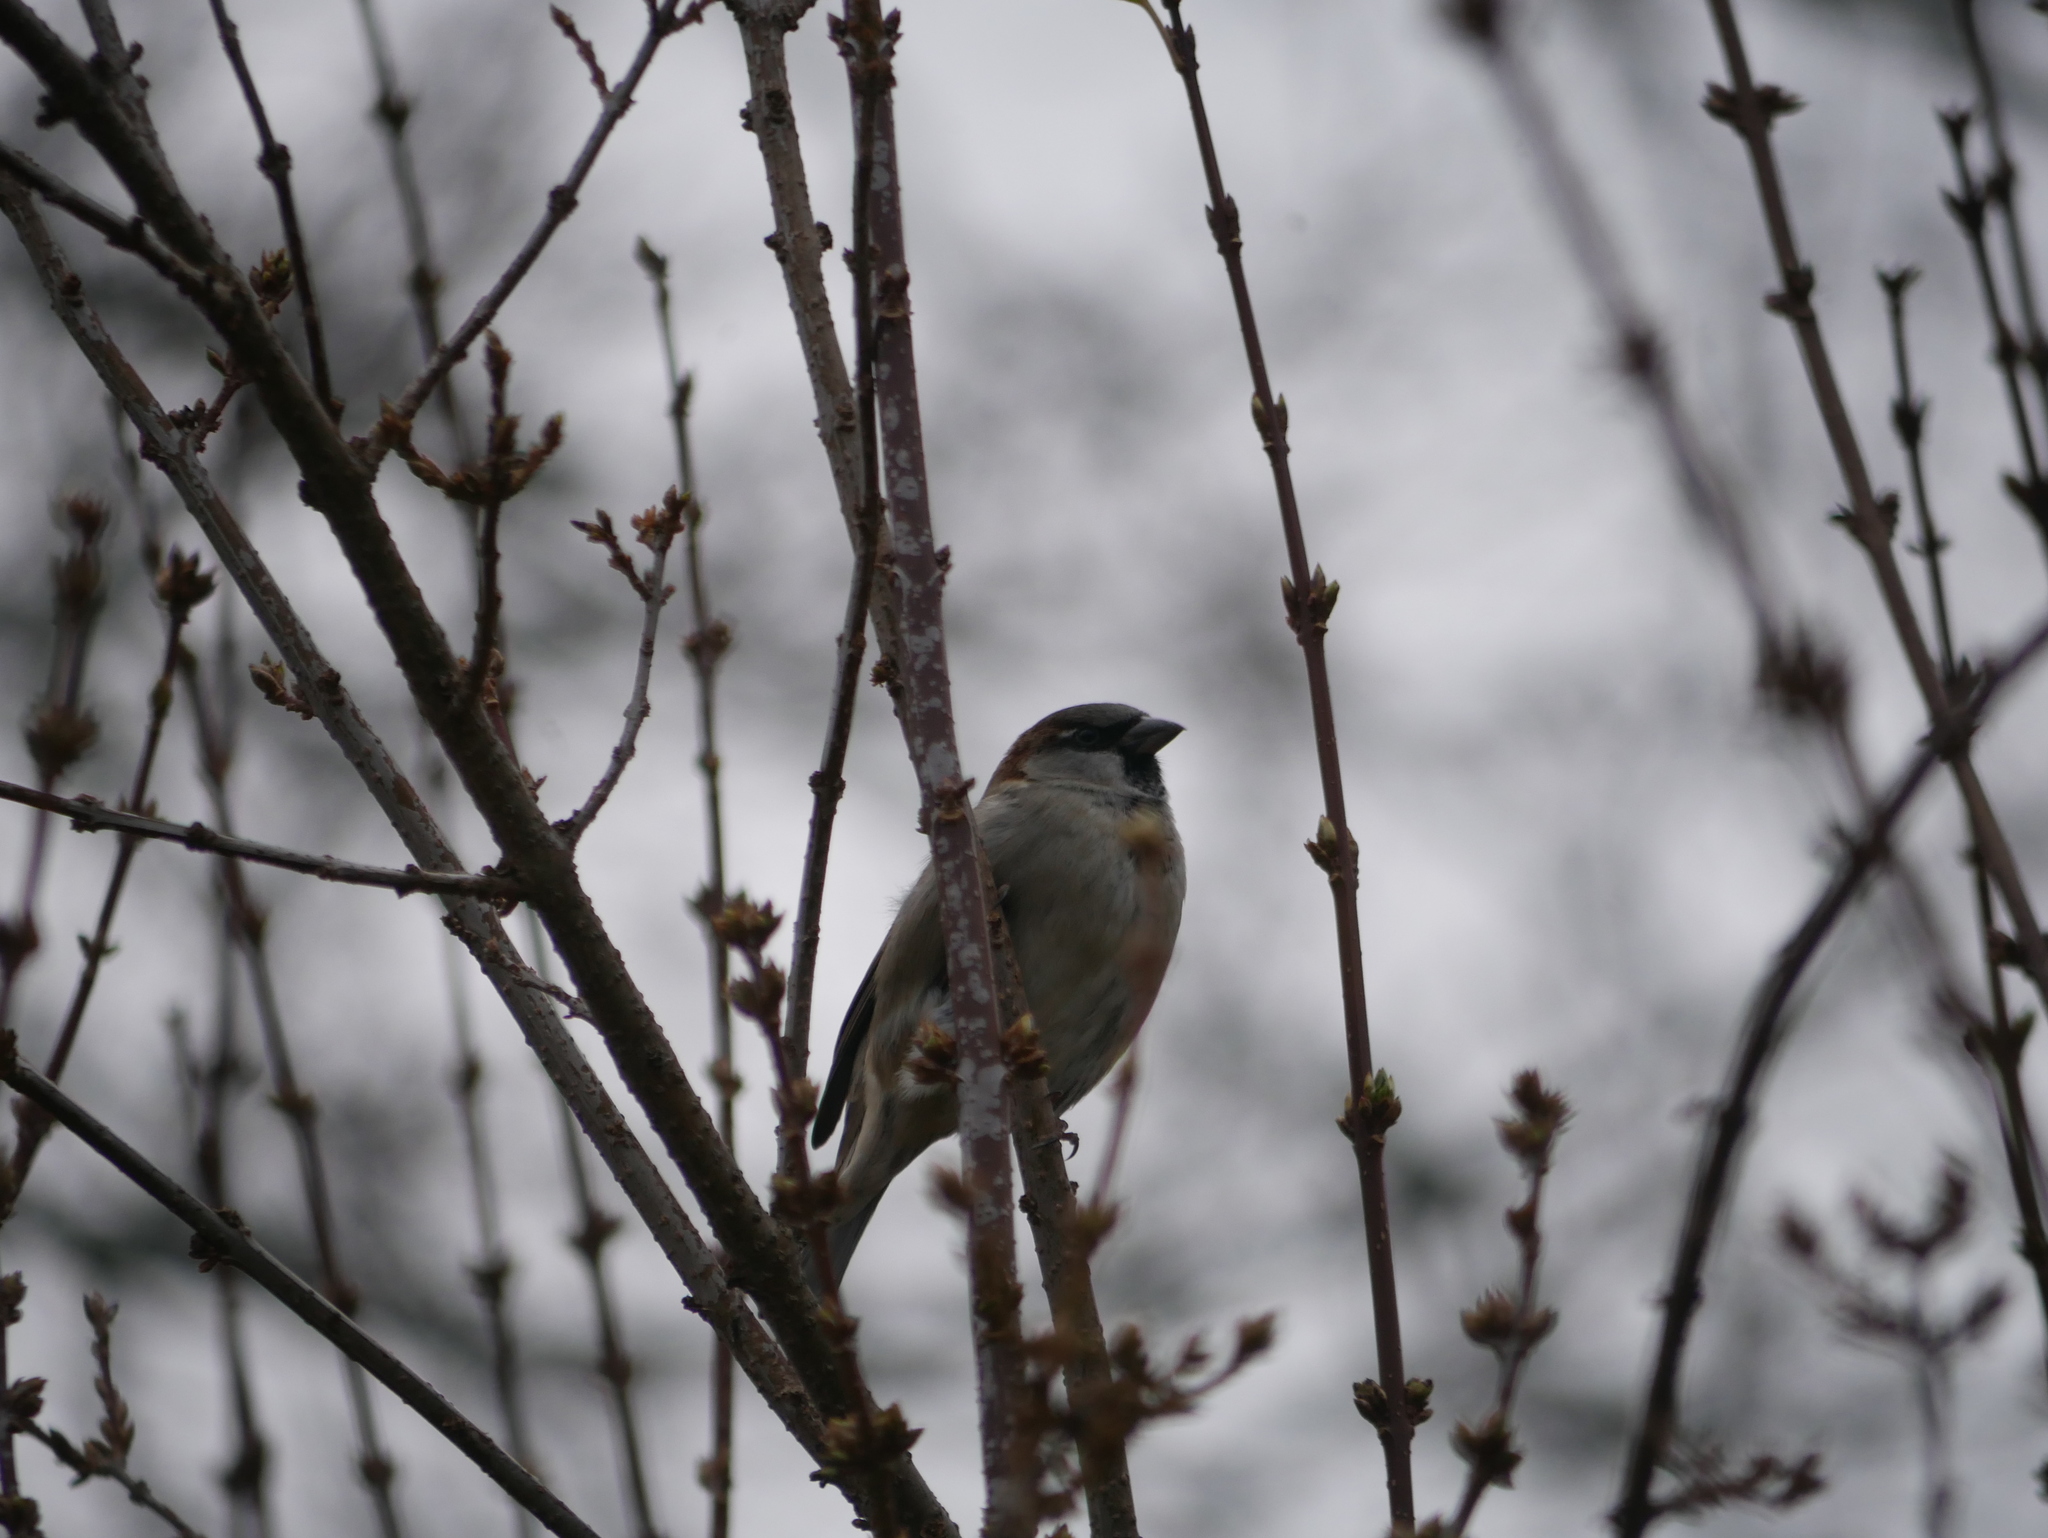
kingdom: Animalia
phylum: Chordata
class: Aves
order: Passeriformes
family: Passeridae
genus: Passer
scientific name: Passer domesticus
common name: House sparrow
